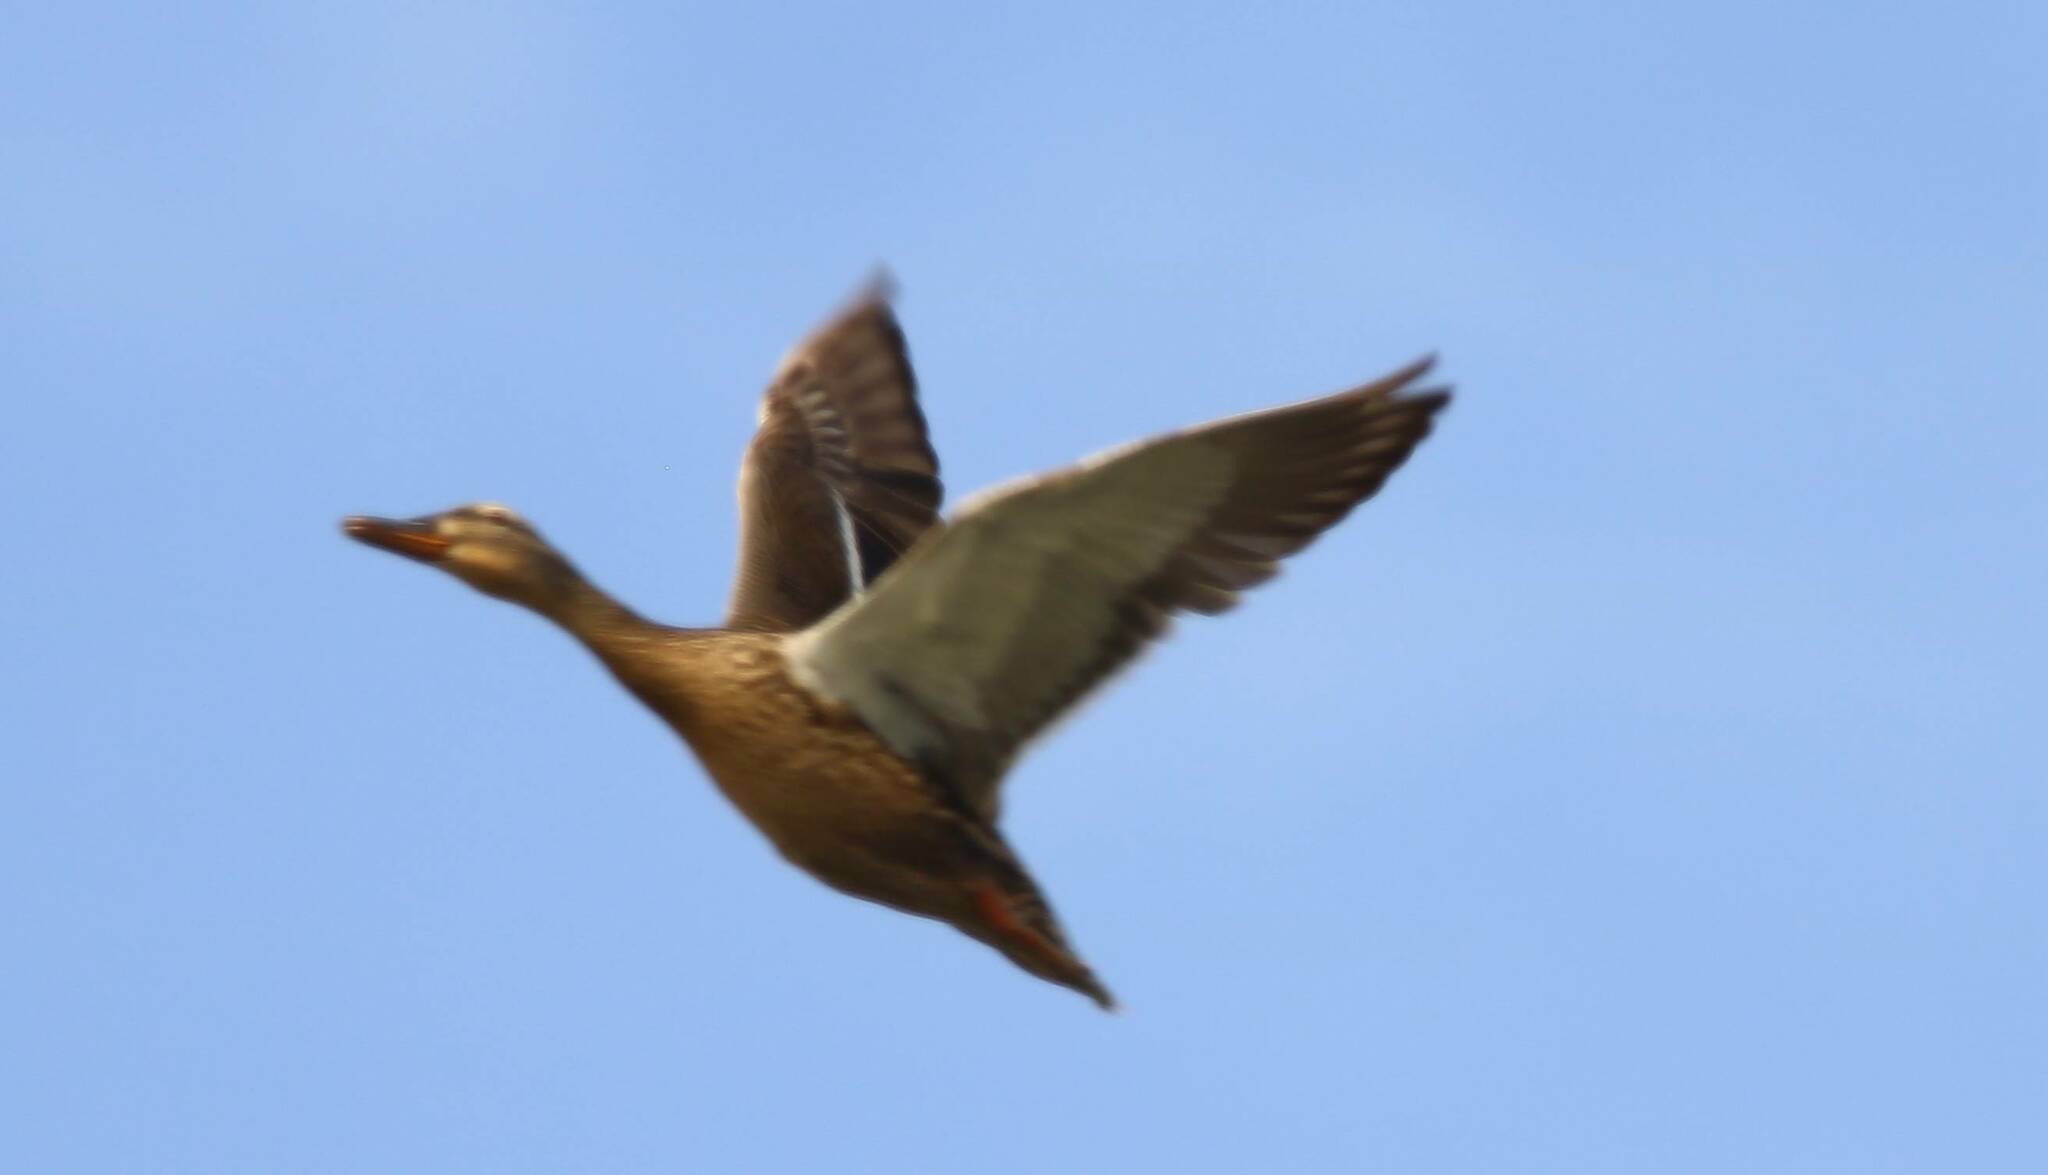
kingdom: Animalia
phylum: Chordata
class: Aves
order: Anseriformes
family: Anatidae
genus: Anas
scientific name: Anas platyrhynchos
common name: Mallard
